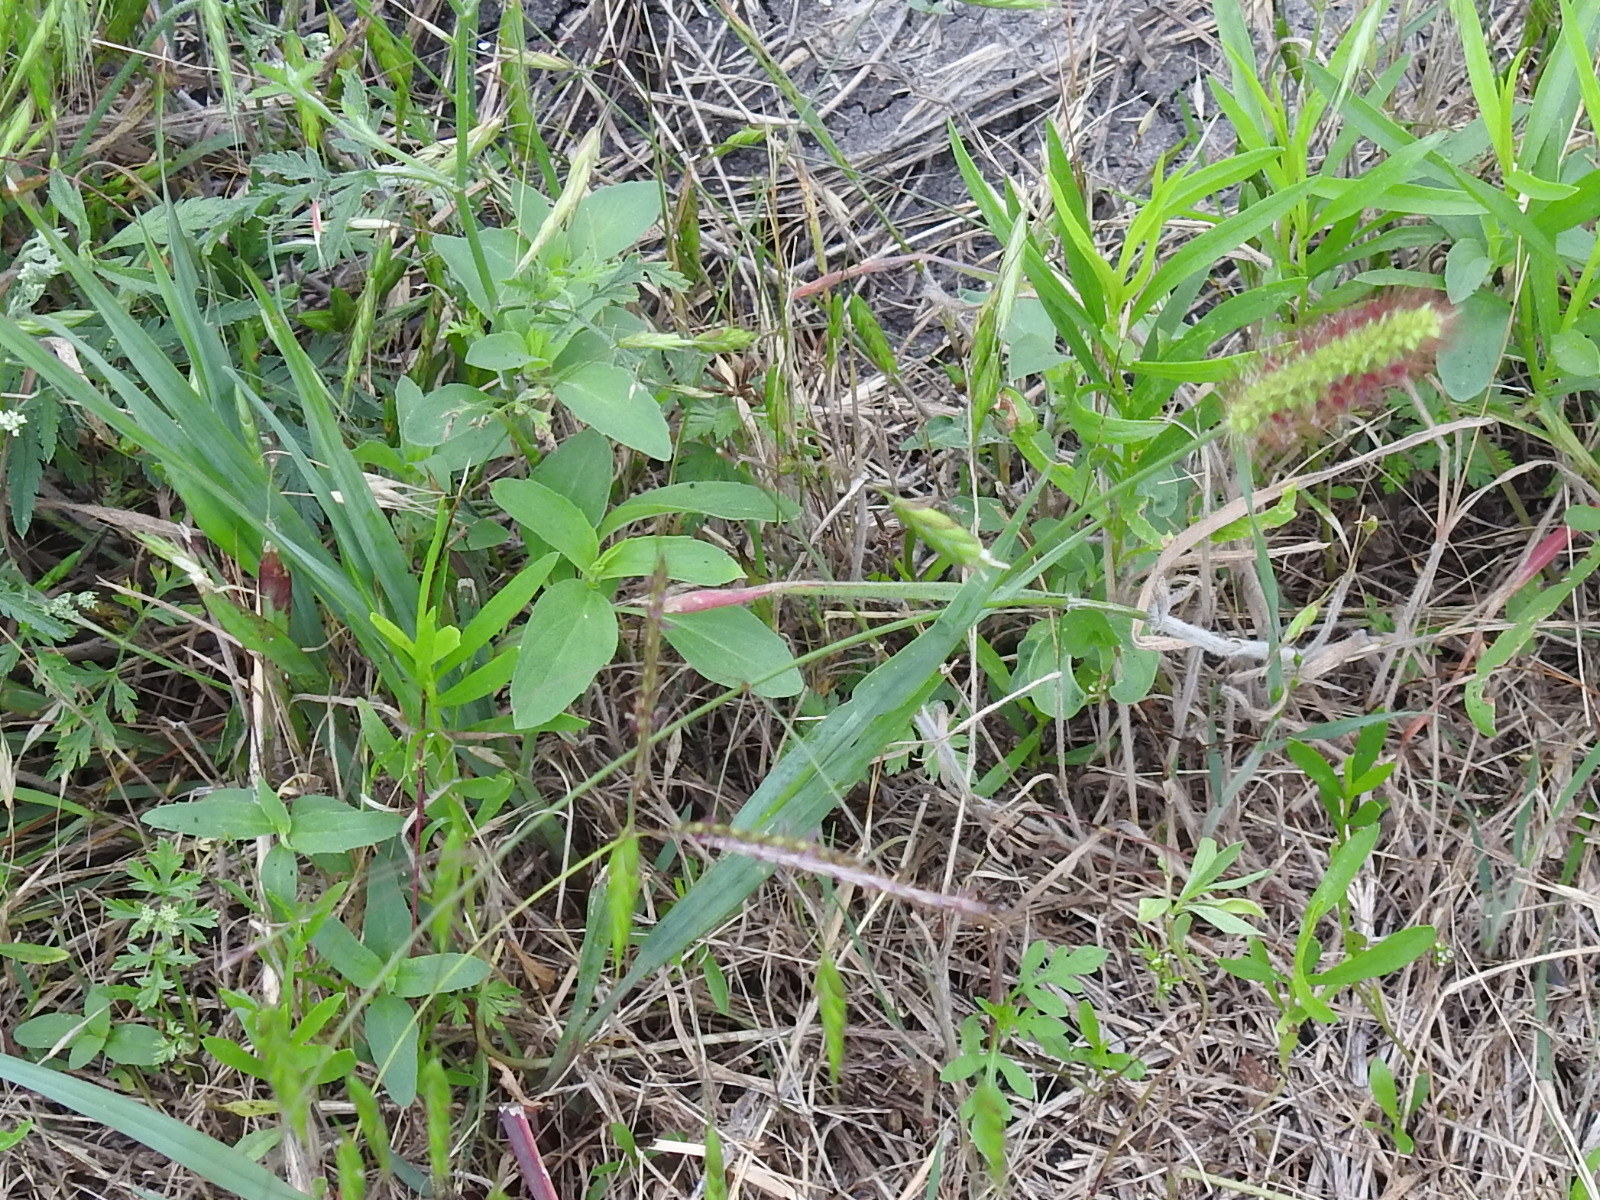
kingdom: Plantae
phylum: Tracheophyta
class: Liliopsida
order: Poales
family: Poaceae
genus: Setaria
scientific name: Setaria parviflora
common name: Knotroot bristle-grass
